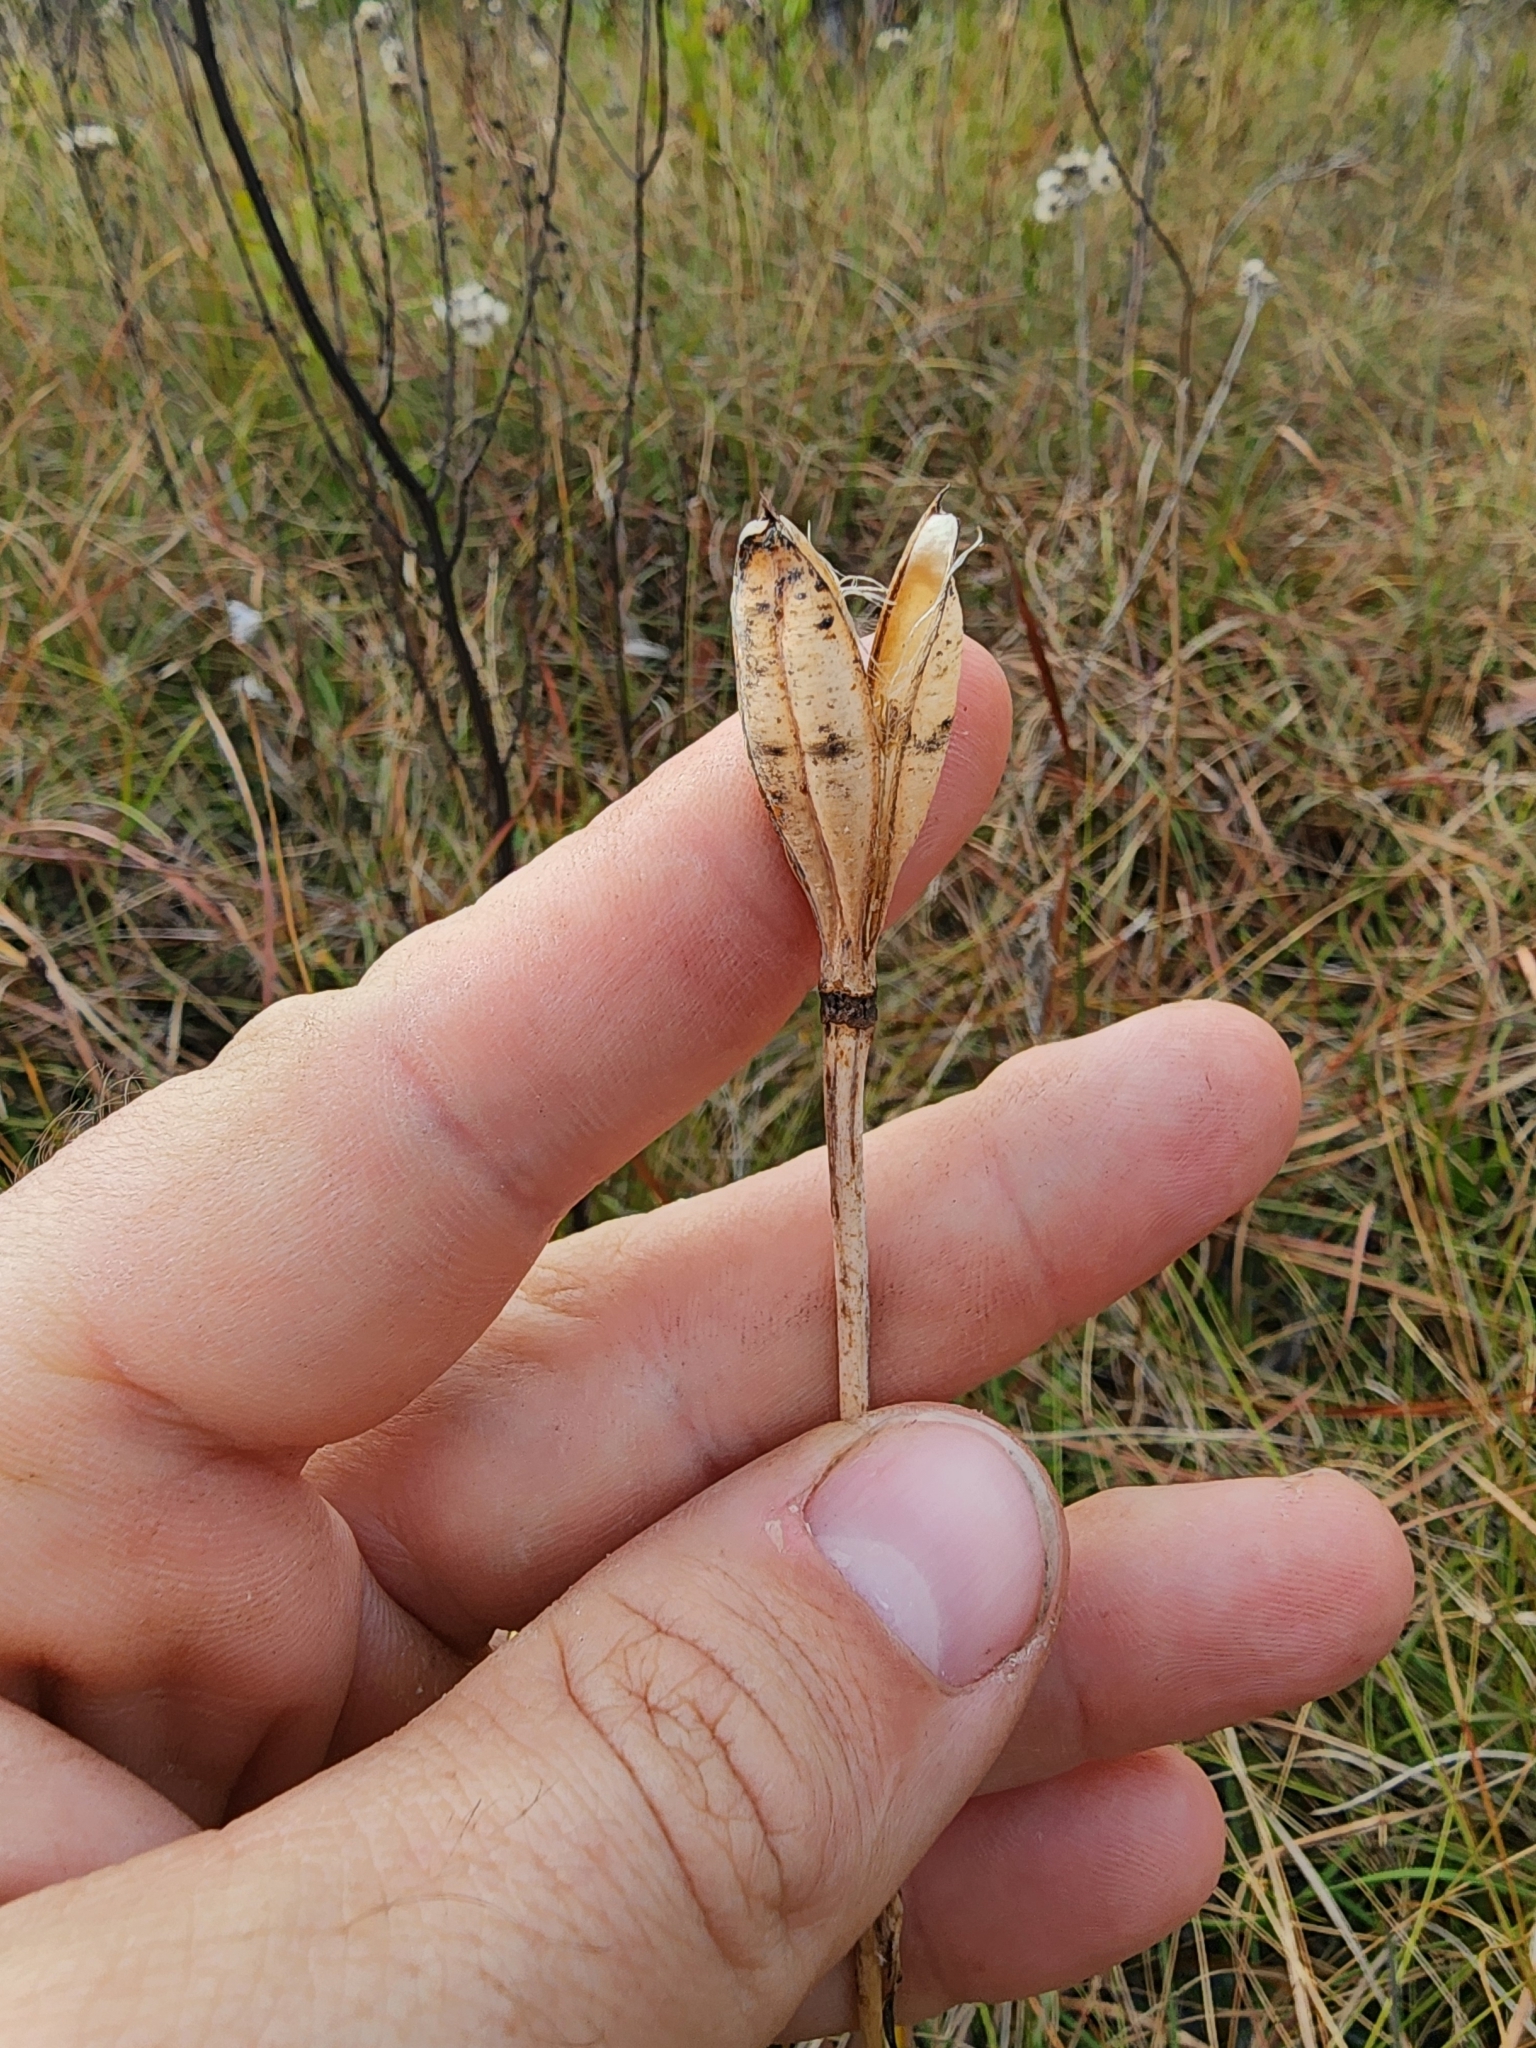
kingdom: Plantae
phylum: Tracheophyta
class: Liliopsida
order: Liliales
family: Liliaceae
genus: Lilium
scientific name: Lilium catesbaei
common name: Catesby's lily
